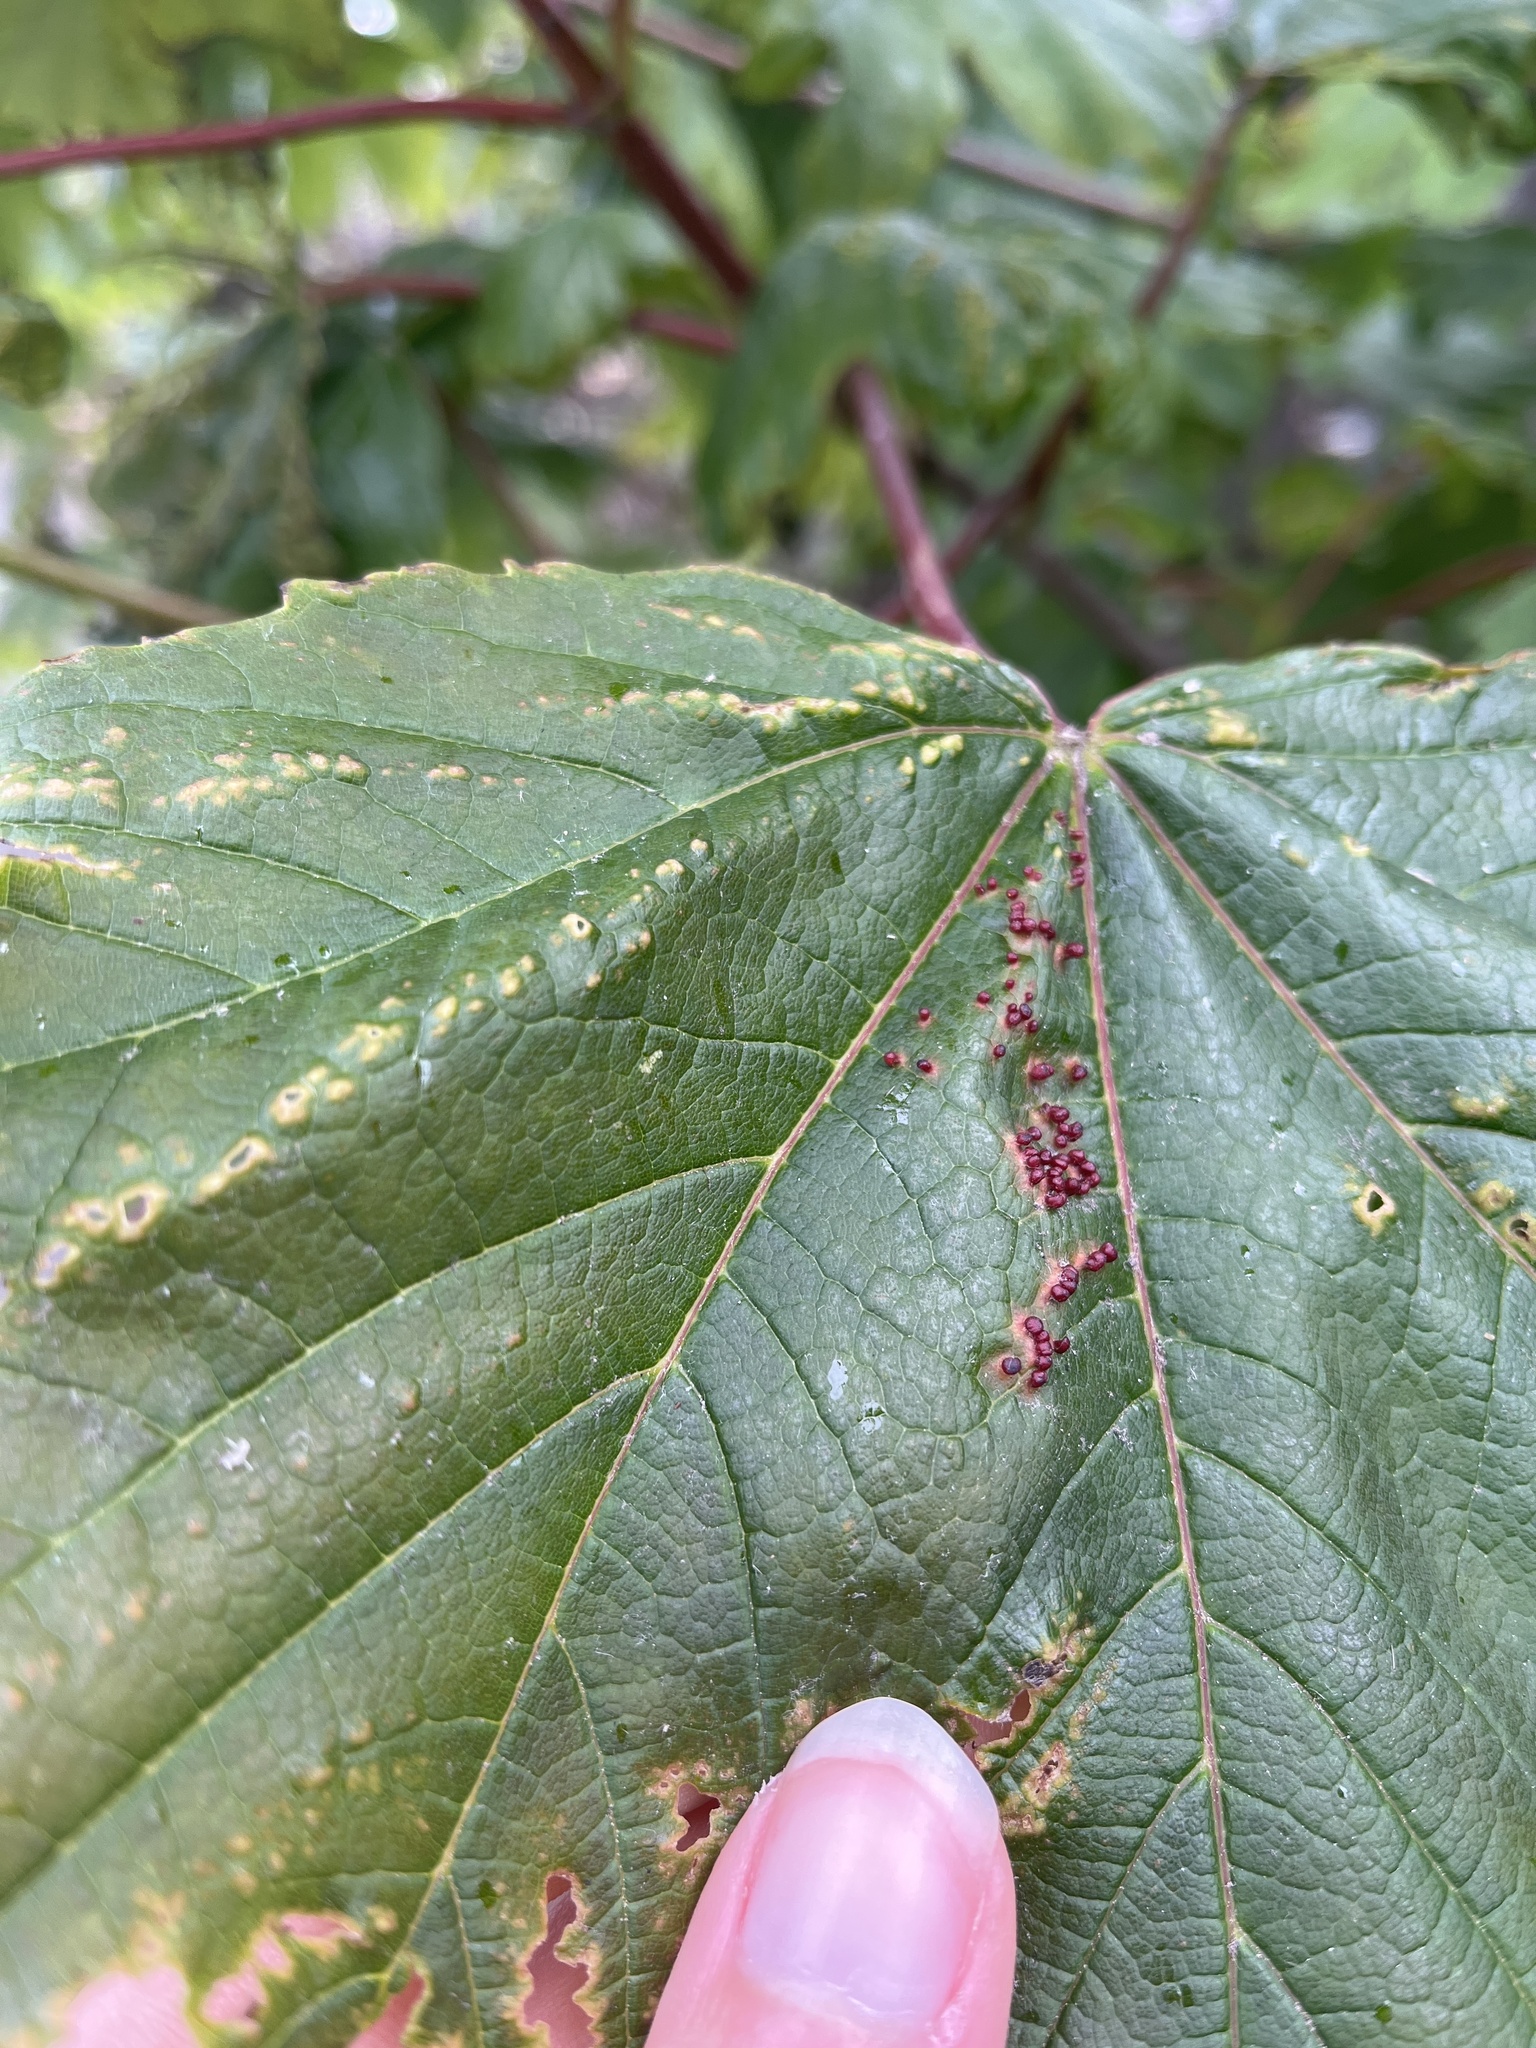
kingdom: Animalia
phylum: Arthropoda
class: Arachnida
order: Trombidiformes
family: Eriophyidae
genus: Aceria
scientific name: Aceria cephaloneus
